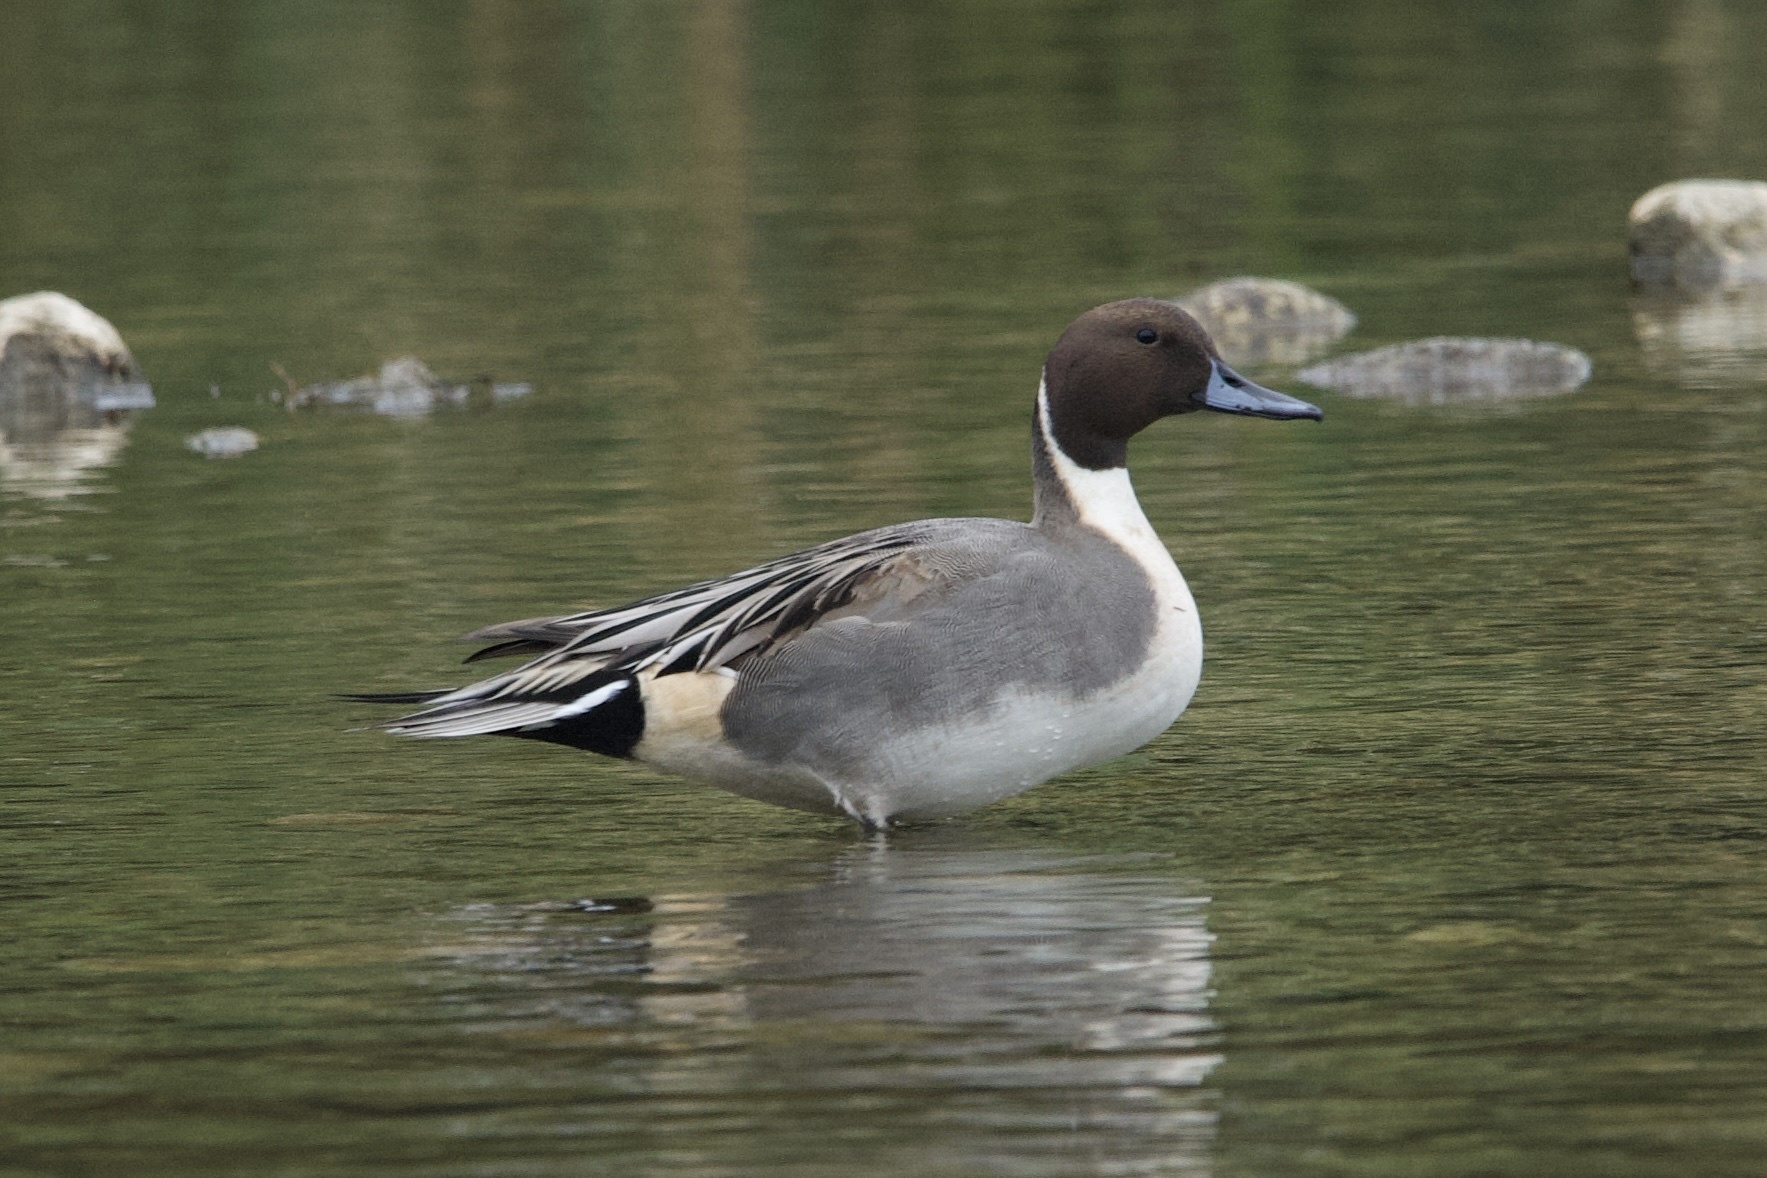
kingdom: Animalia
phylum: Chordata
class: Aves
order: Anseriformes
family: Anatidae
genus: Anas
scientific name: Anas acuta
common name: Northern pintail
